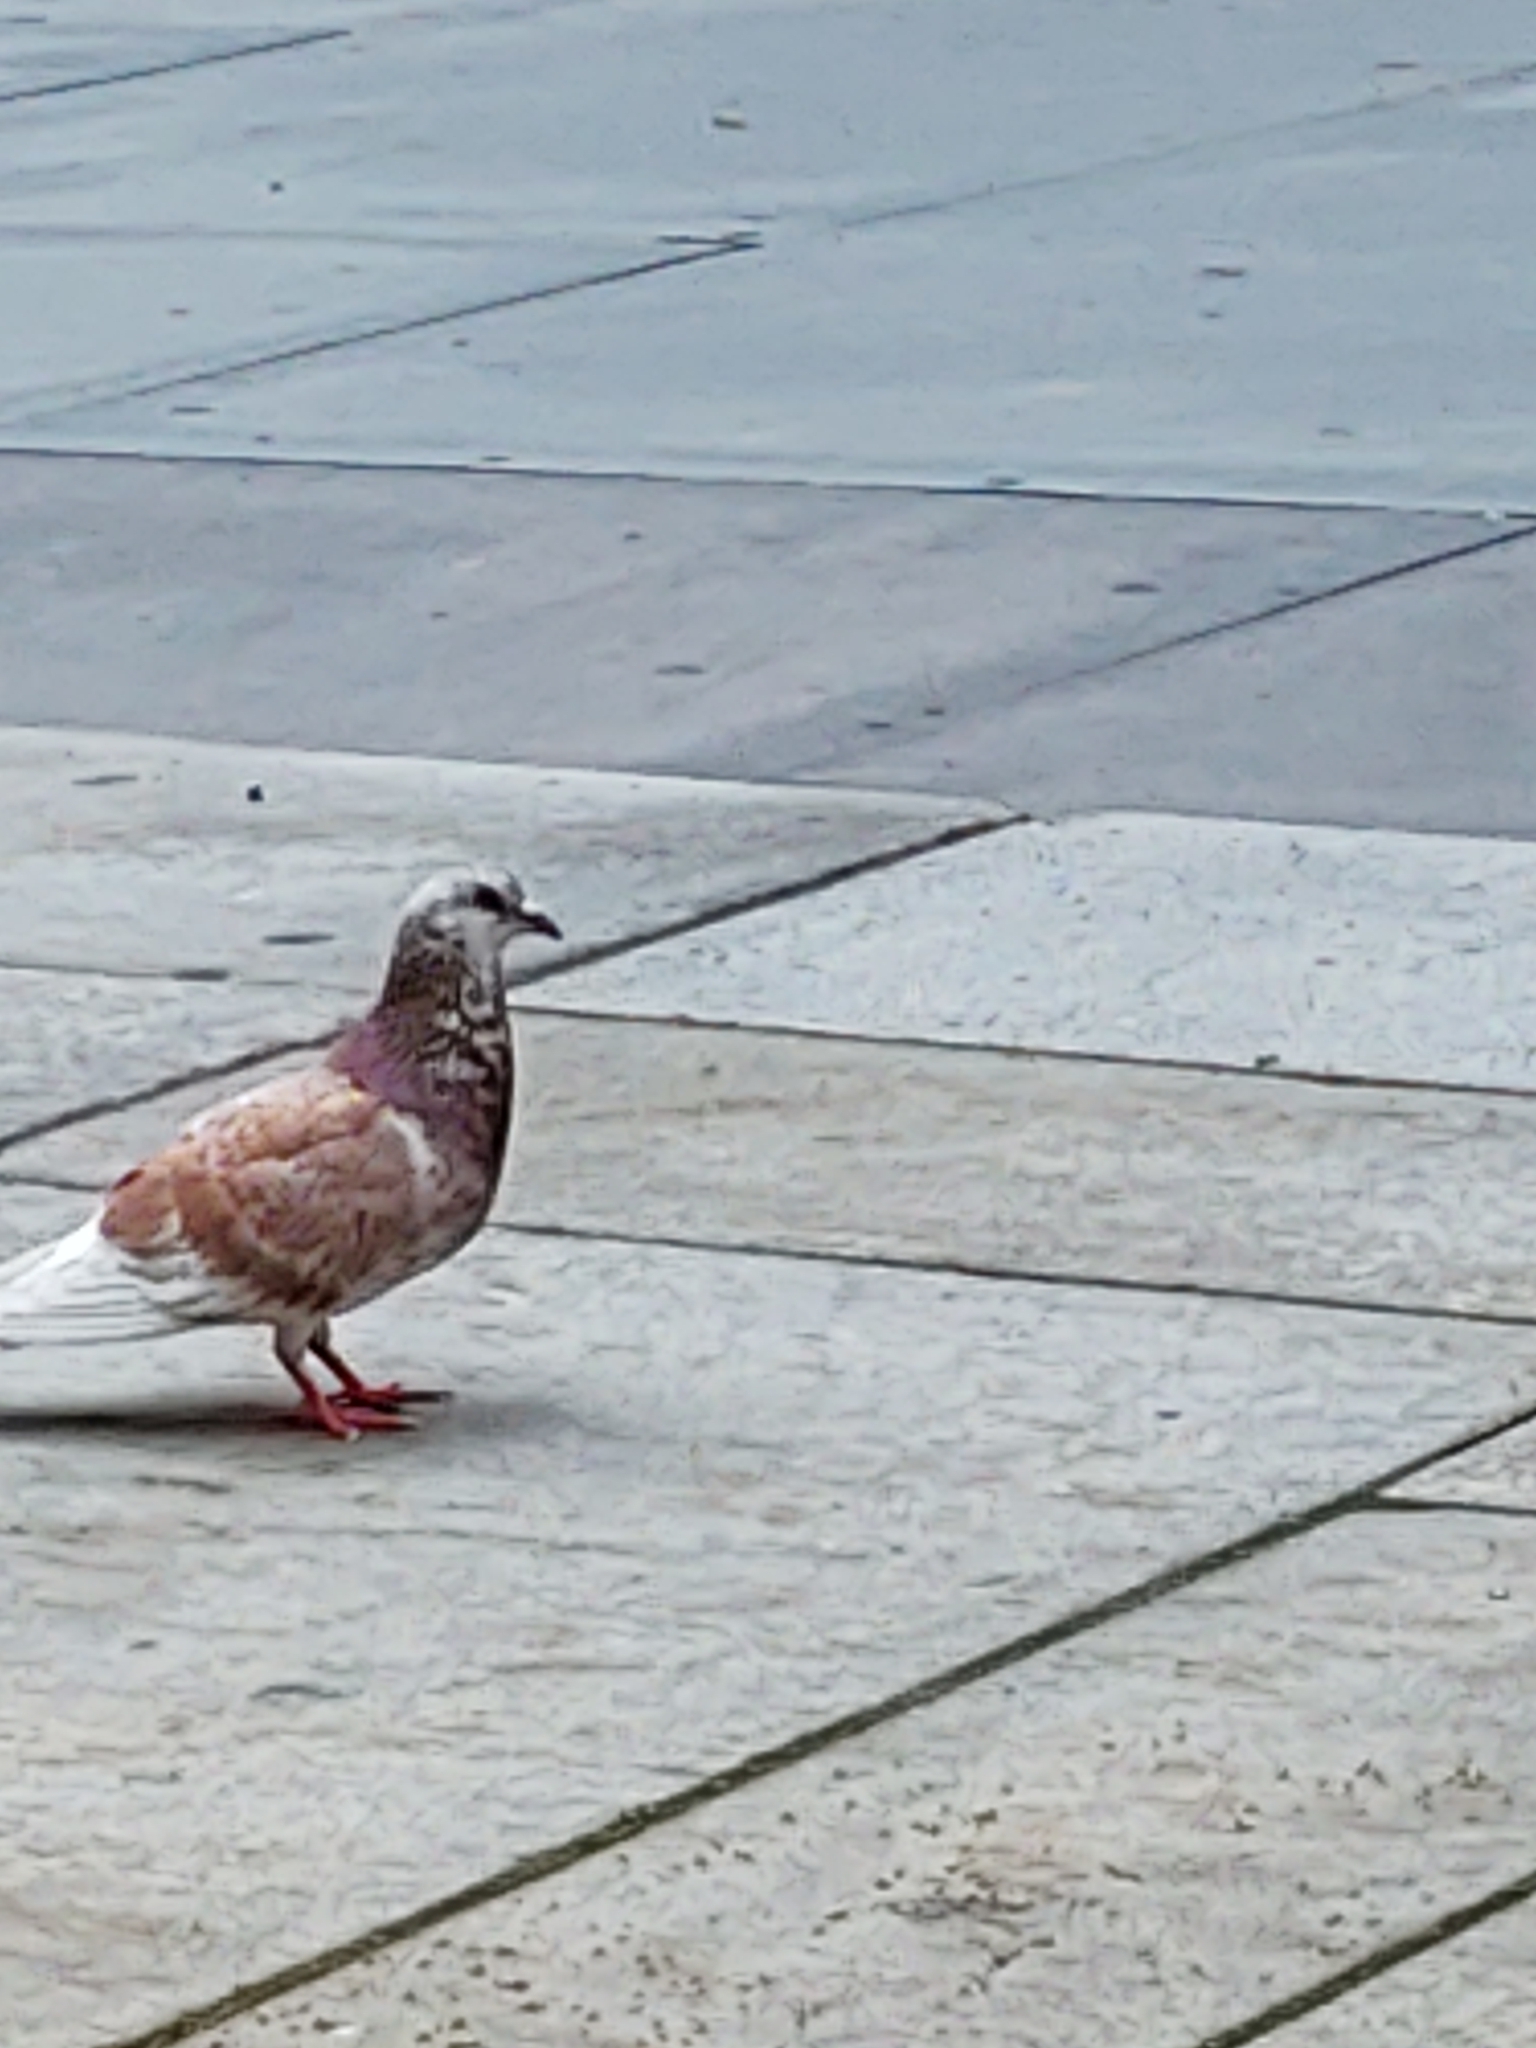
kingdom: Animalia
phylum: Chordata
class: Aves
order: Columbiformes
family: Columbidae
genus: Columba
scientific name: Columba livia
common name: Rock pigeon
